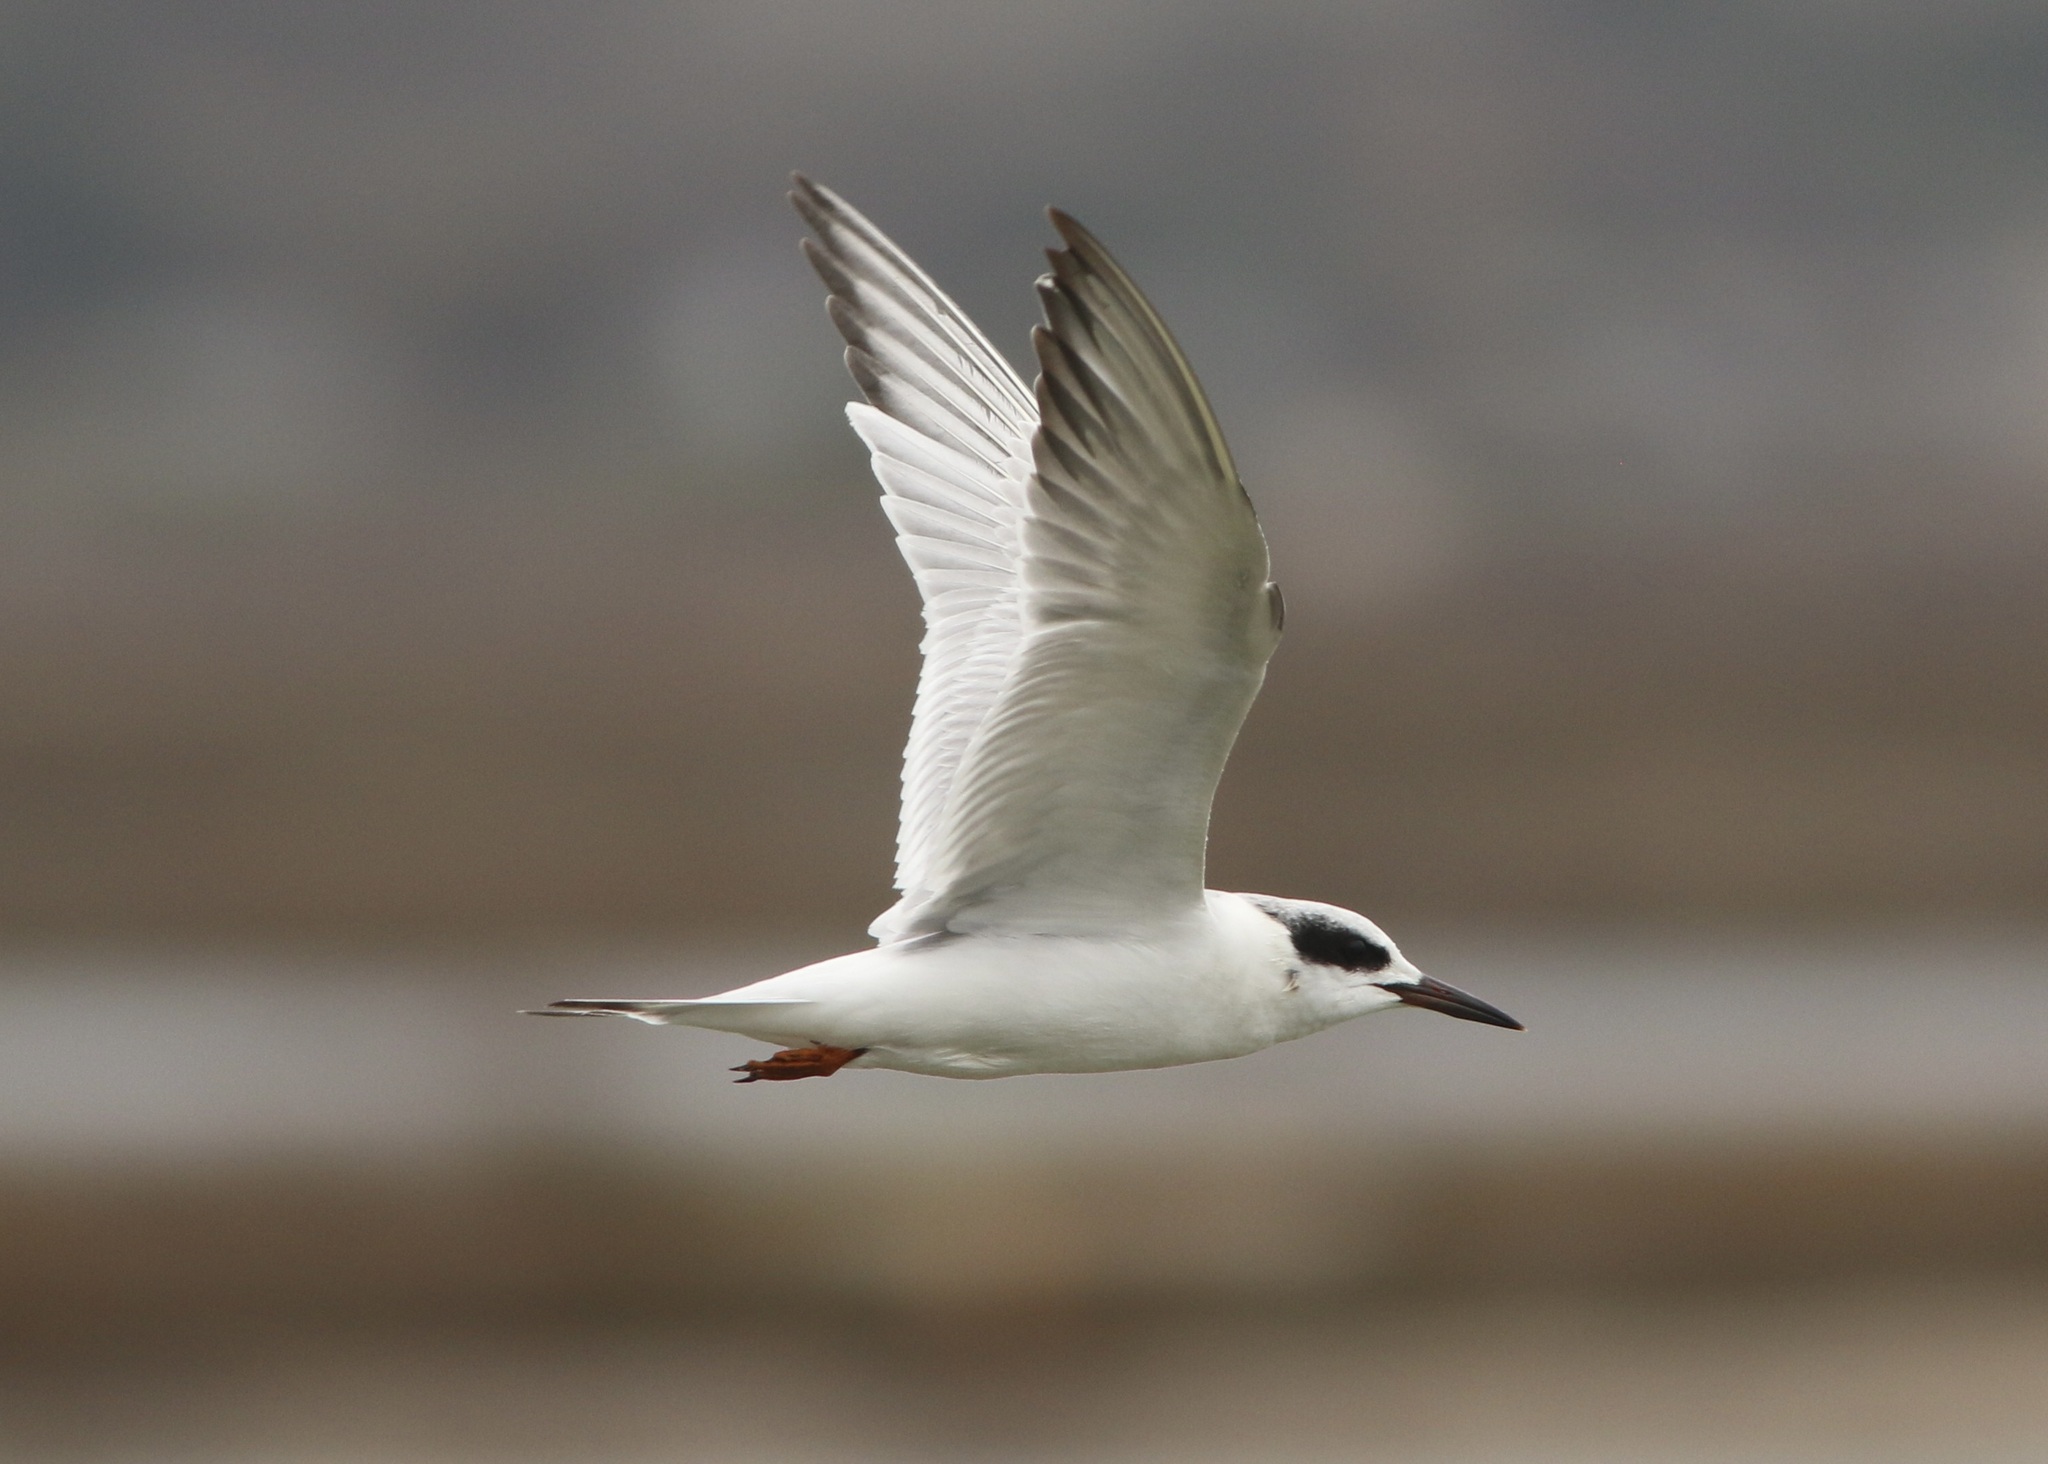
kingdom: Animalia
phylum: Chordata
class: Aves
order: Charadriiformes
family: Laridae
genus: Sterna
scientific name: Sterna forsteri
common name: Forster's tern
